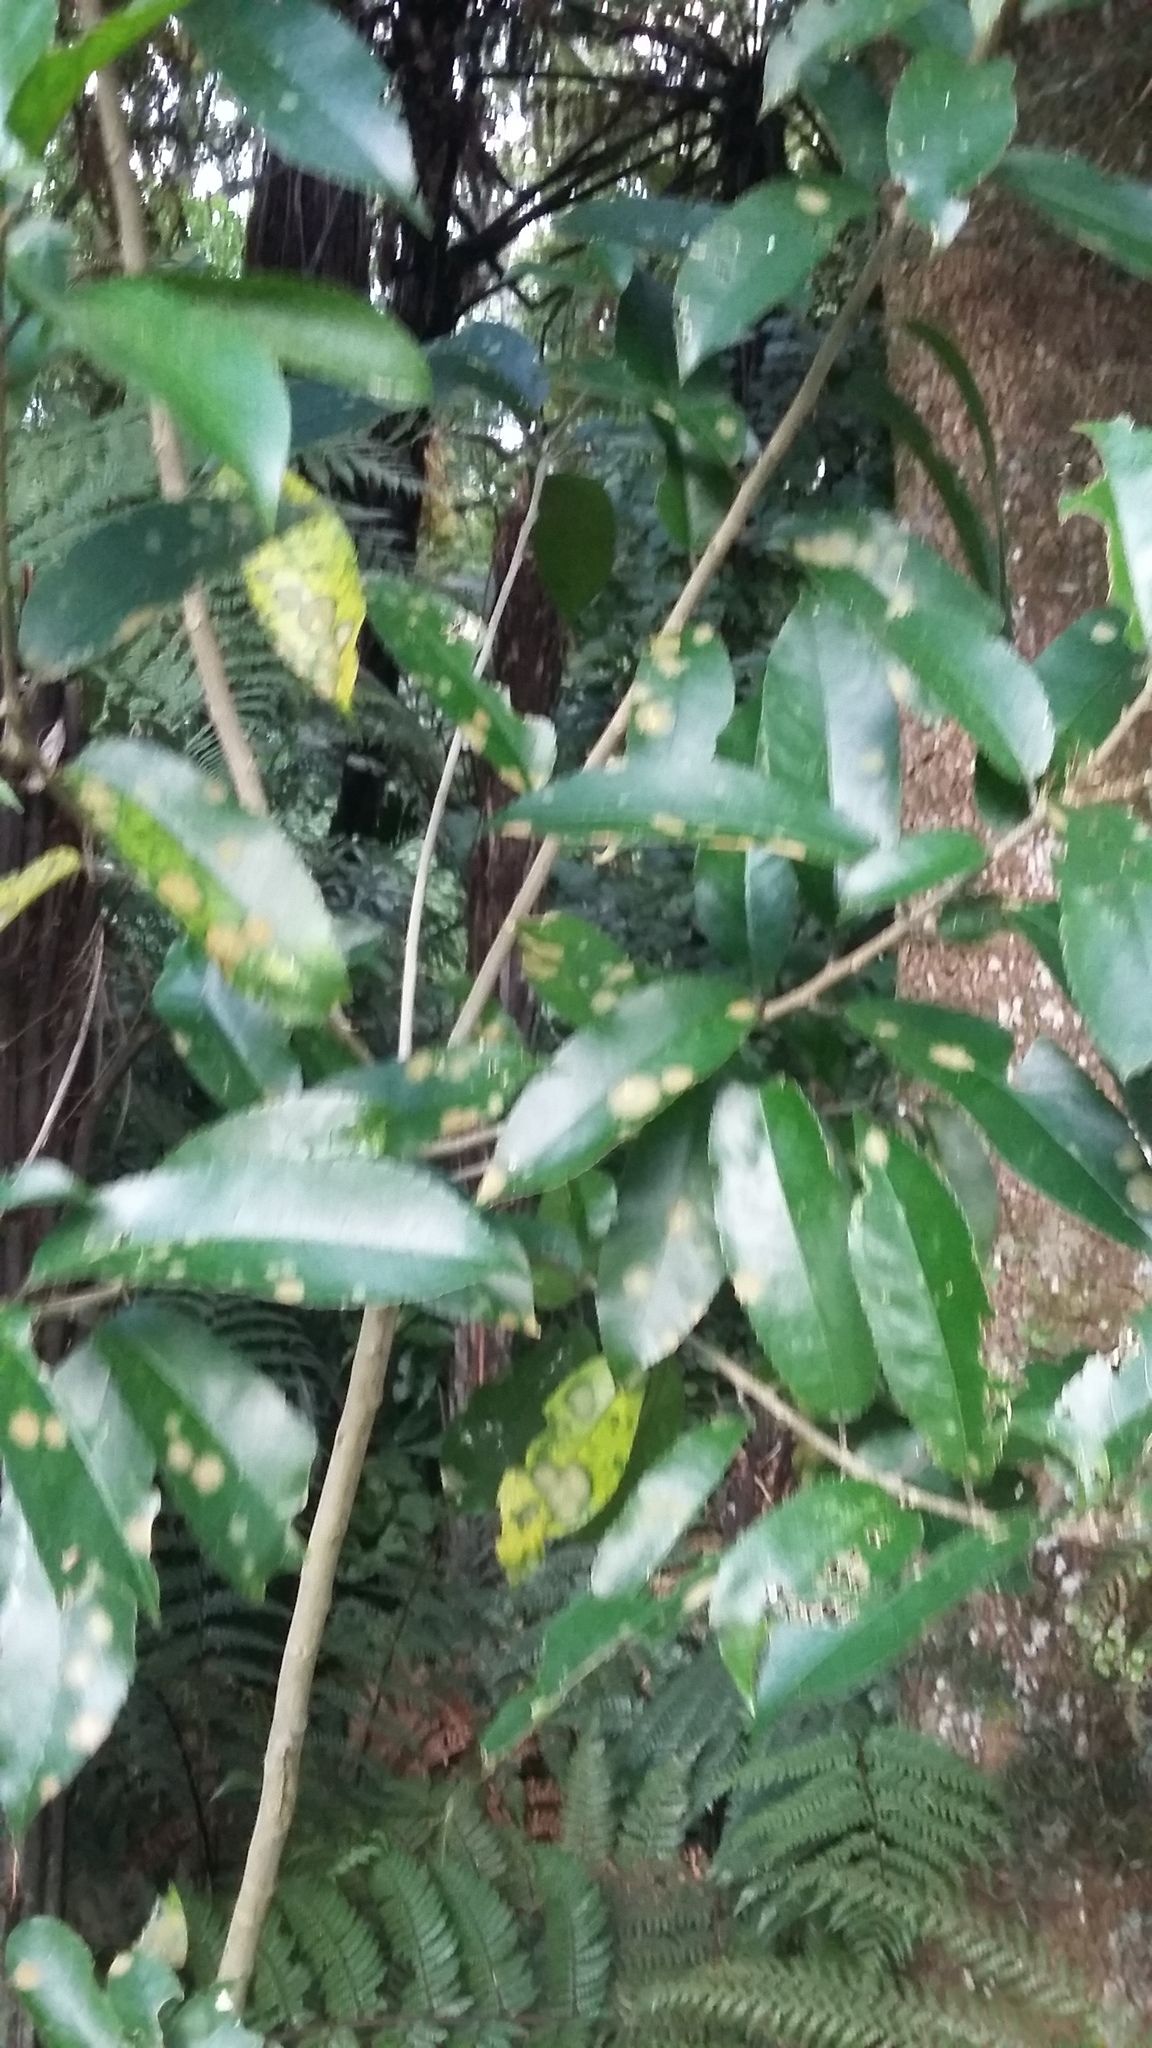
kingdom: Plantae
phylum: Chlorophyta
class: Ulvophyceae
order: Trentepohliales
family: Trentepohliaceae
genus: Cephaleuros
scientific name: Cephaleuros
